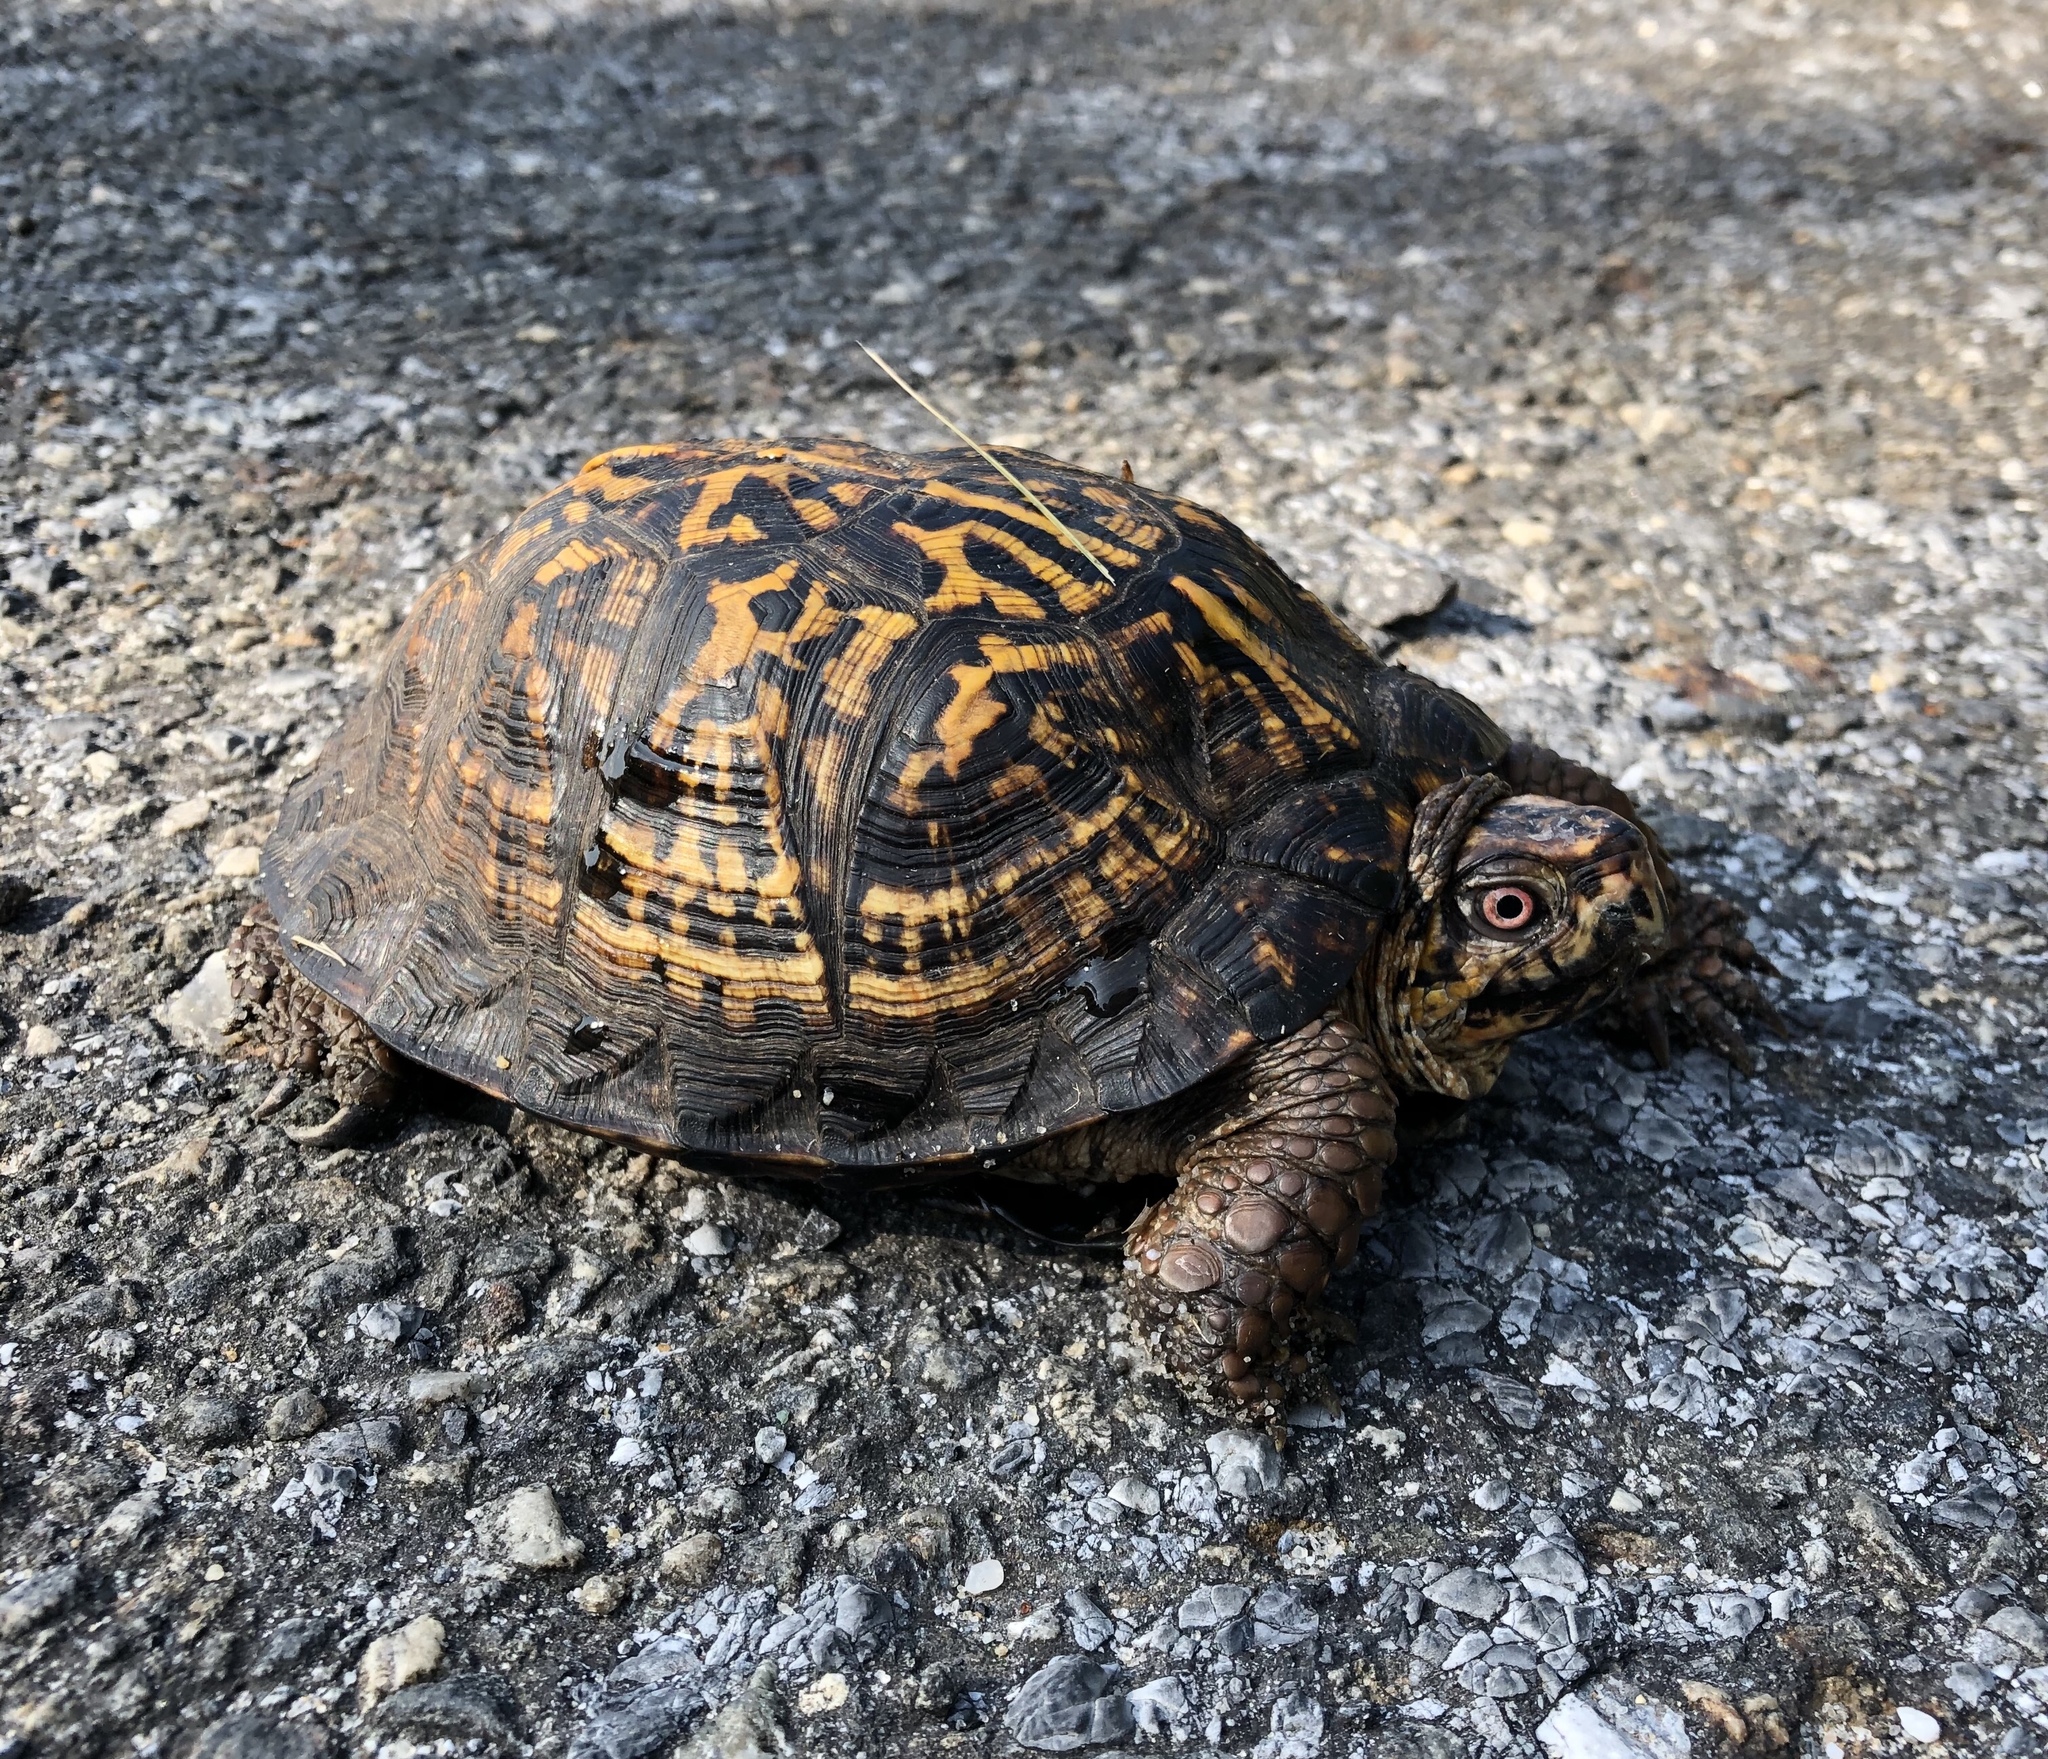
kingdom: Animalia
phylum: Chordata
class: Testudines
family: Emydidae
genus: Terrapene
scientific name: Terrapene carolina
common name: Common box turtle
